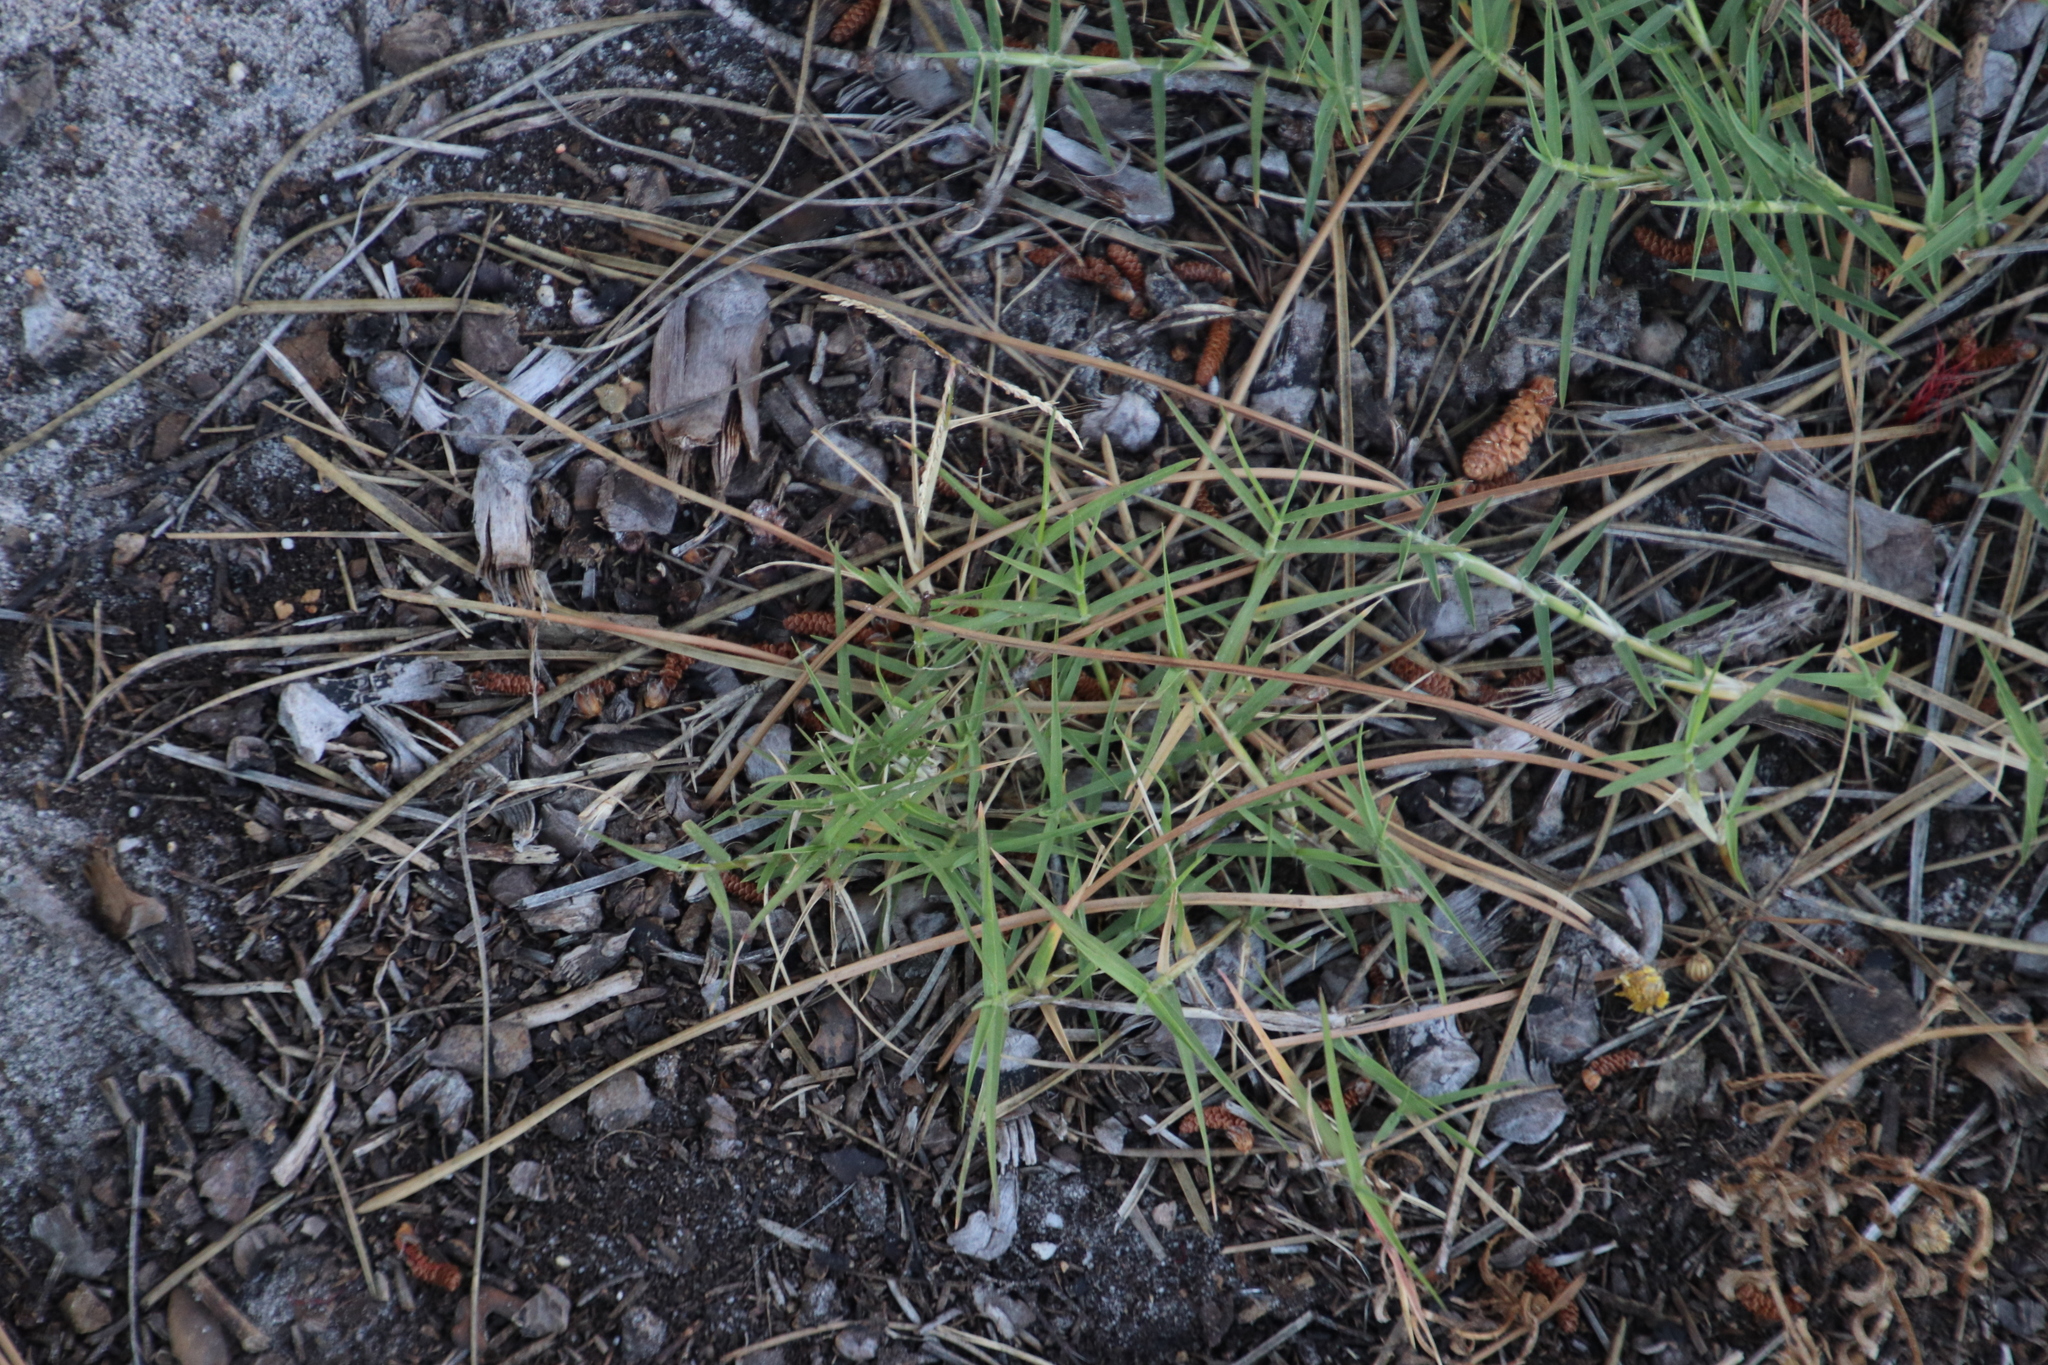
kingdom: Plantae
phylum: Tracheophyta
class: Liliopsida
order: Poales
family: Poaceae
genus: Cynodon
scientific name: Cynodon dactylon
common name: Bermuda grass
